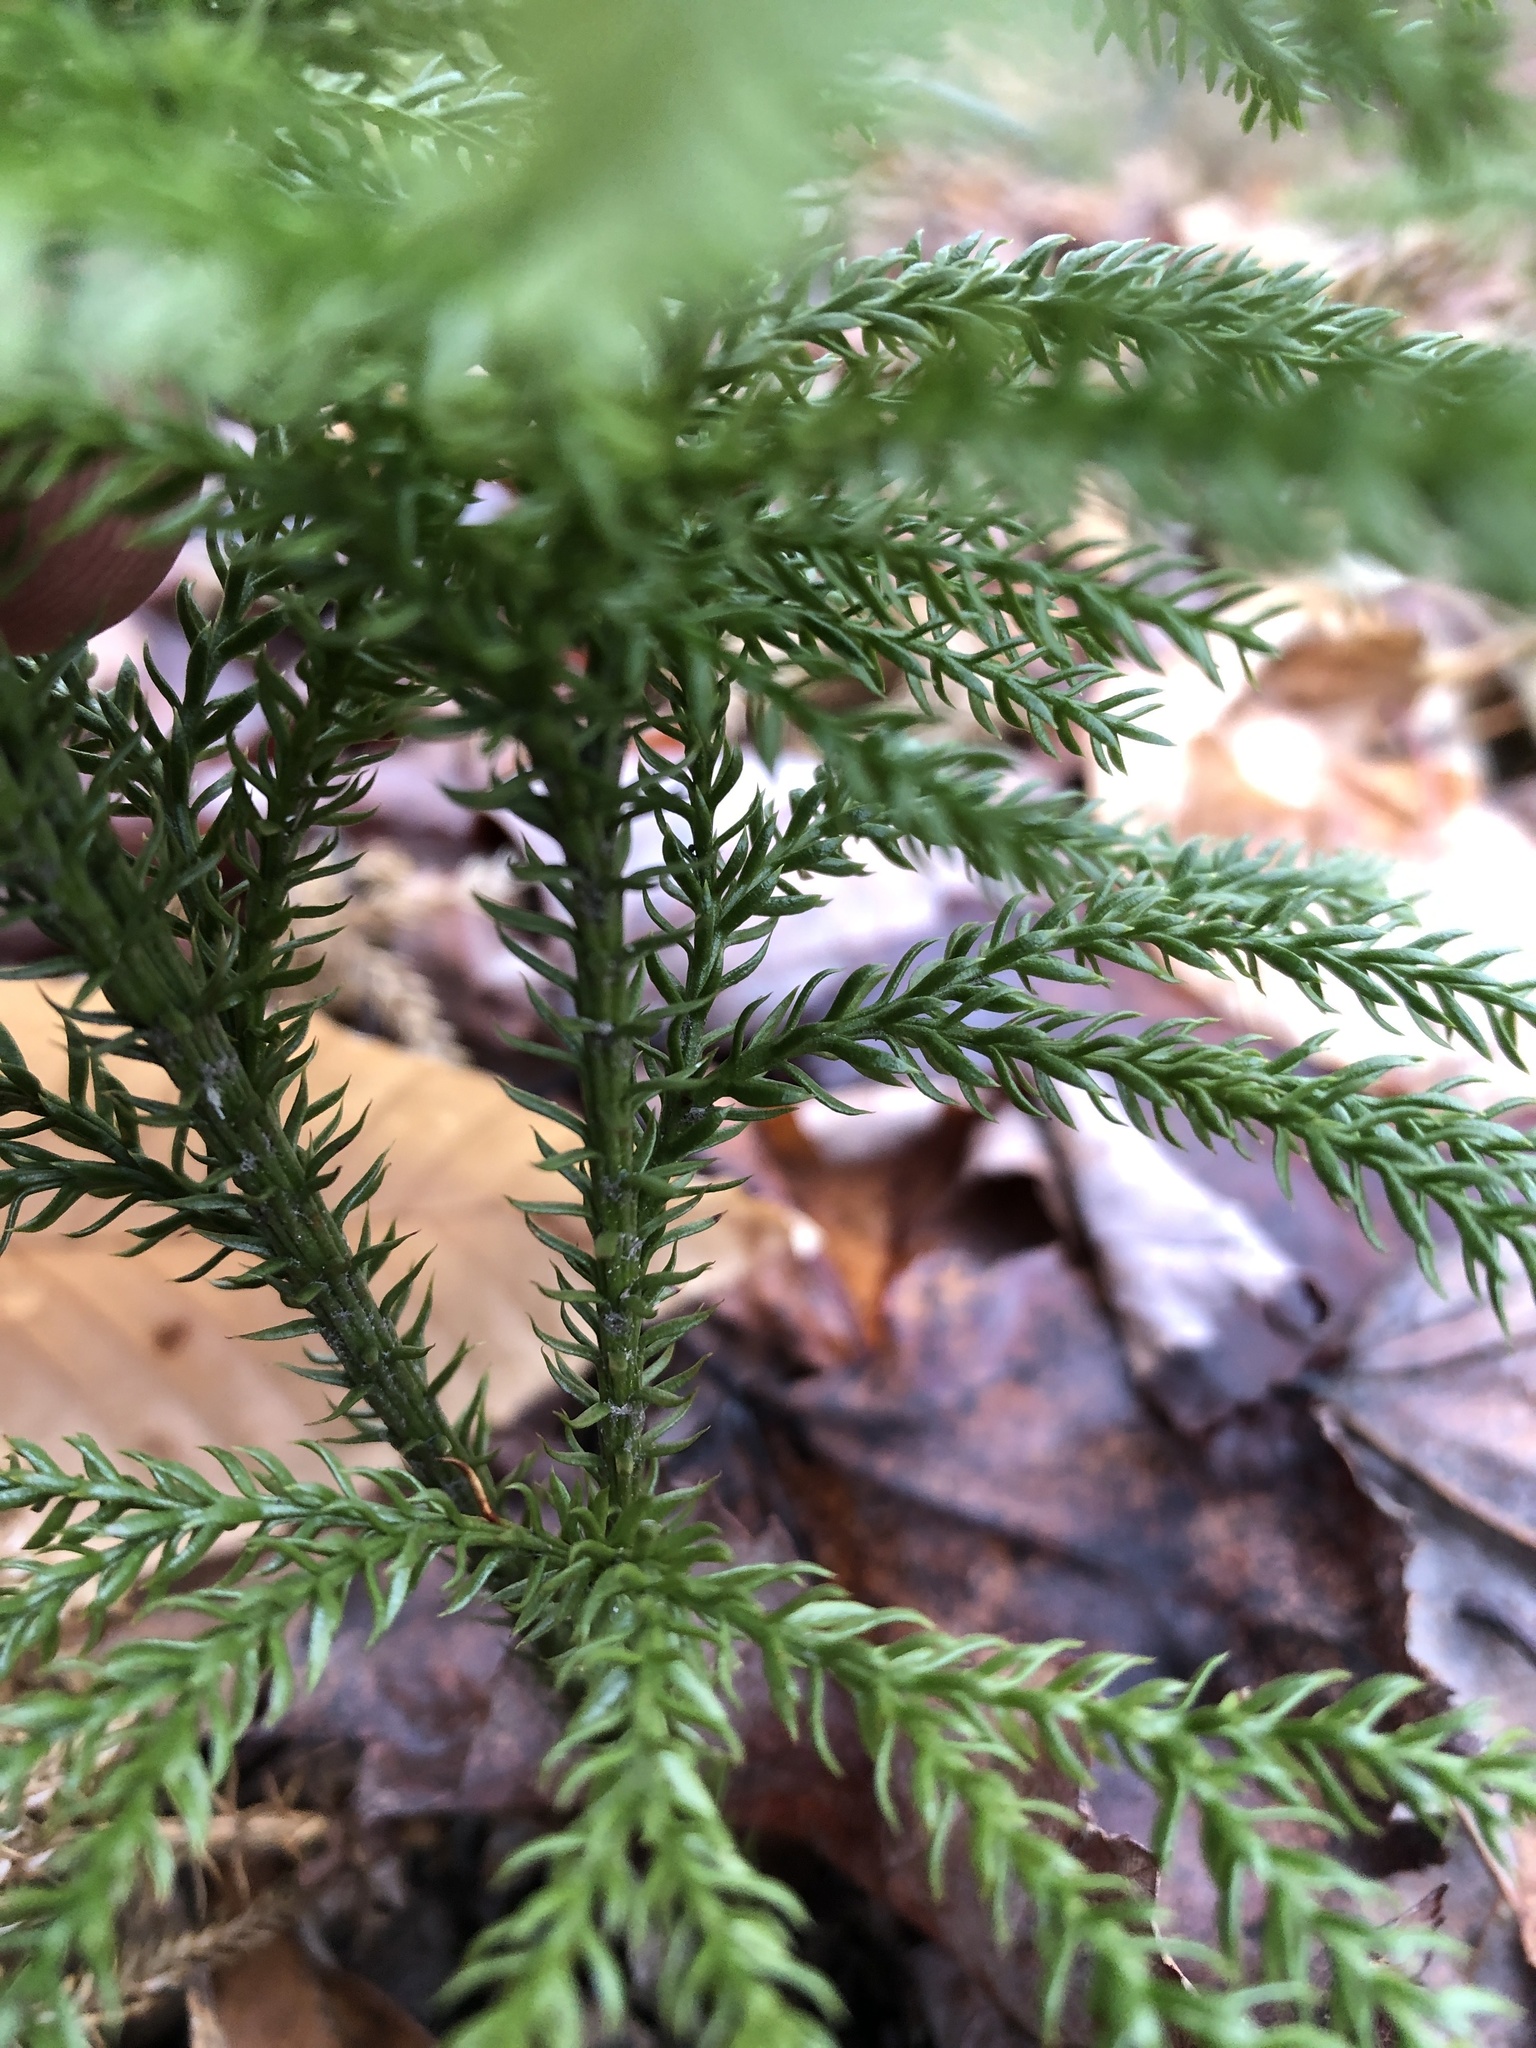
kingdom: Plantae
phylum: Tracheophyta
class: Lycopodiopsida
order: Lycopodiales
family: Lycopodiaceae
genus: Dendrolycopodium
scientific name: Dendrolycopodium dendroideum
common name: Northern tree-clubmoss
